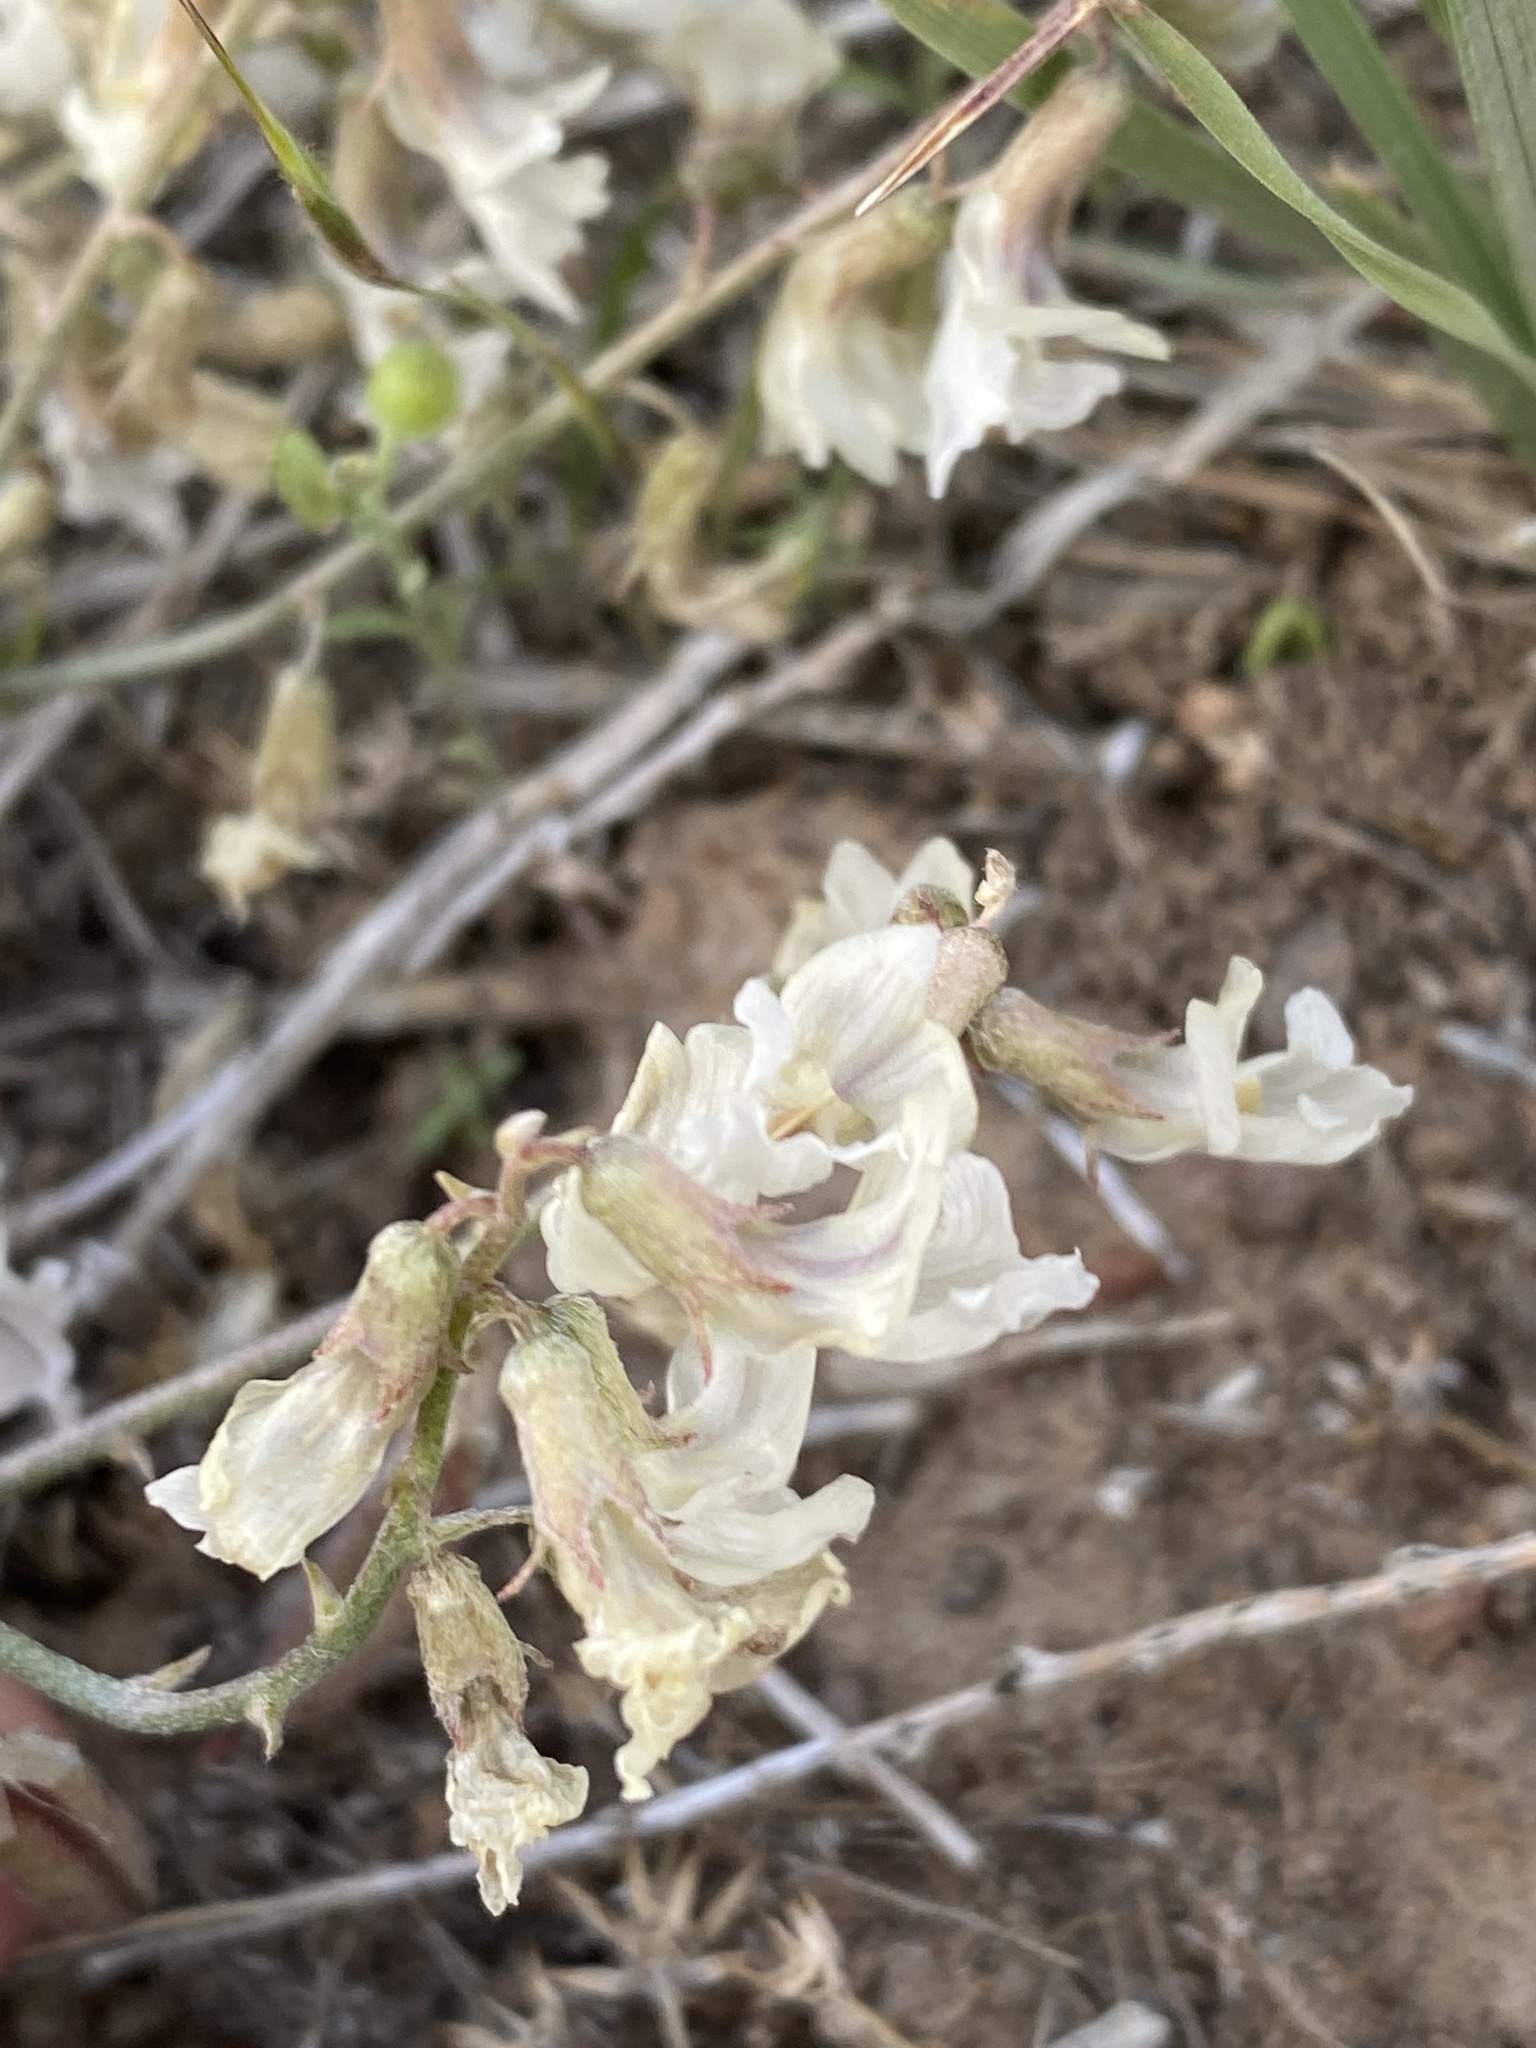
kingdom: Plantae
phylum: Tracheophyta
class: Magnoliopsida
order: Fabales
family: Fabaceae
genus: Astragalus
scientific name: Astragalus atratus
